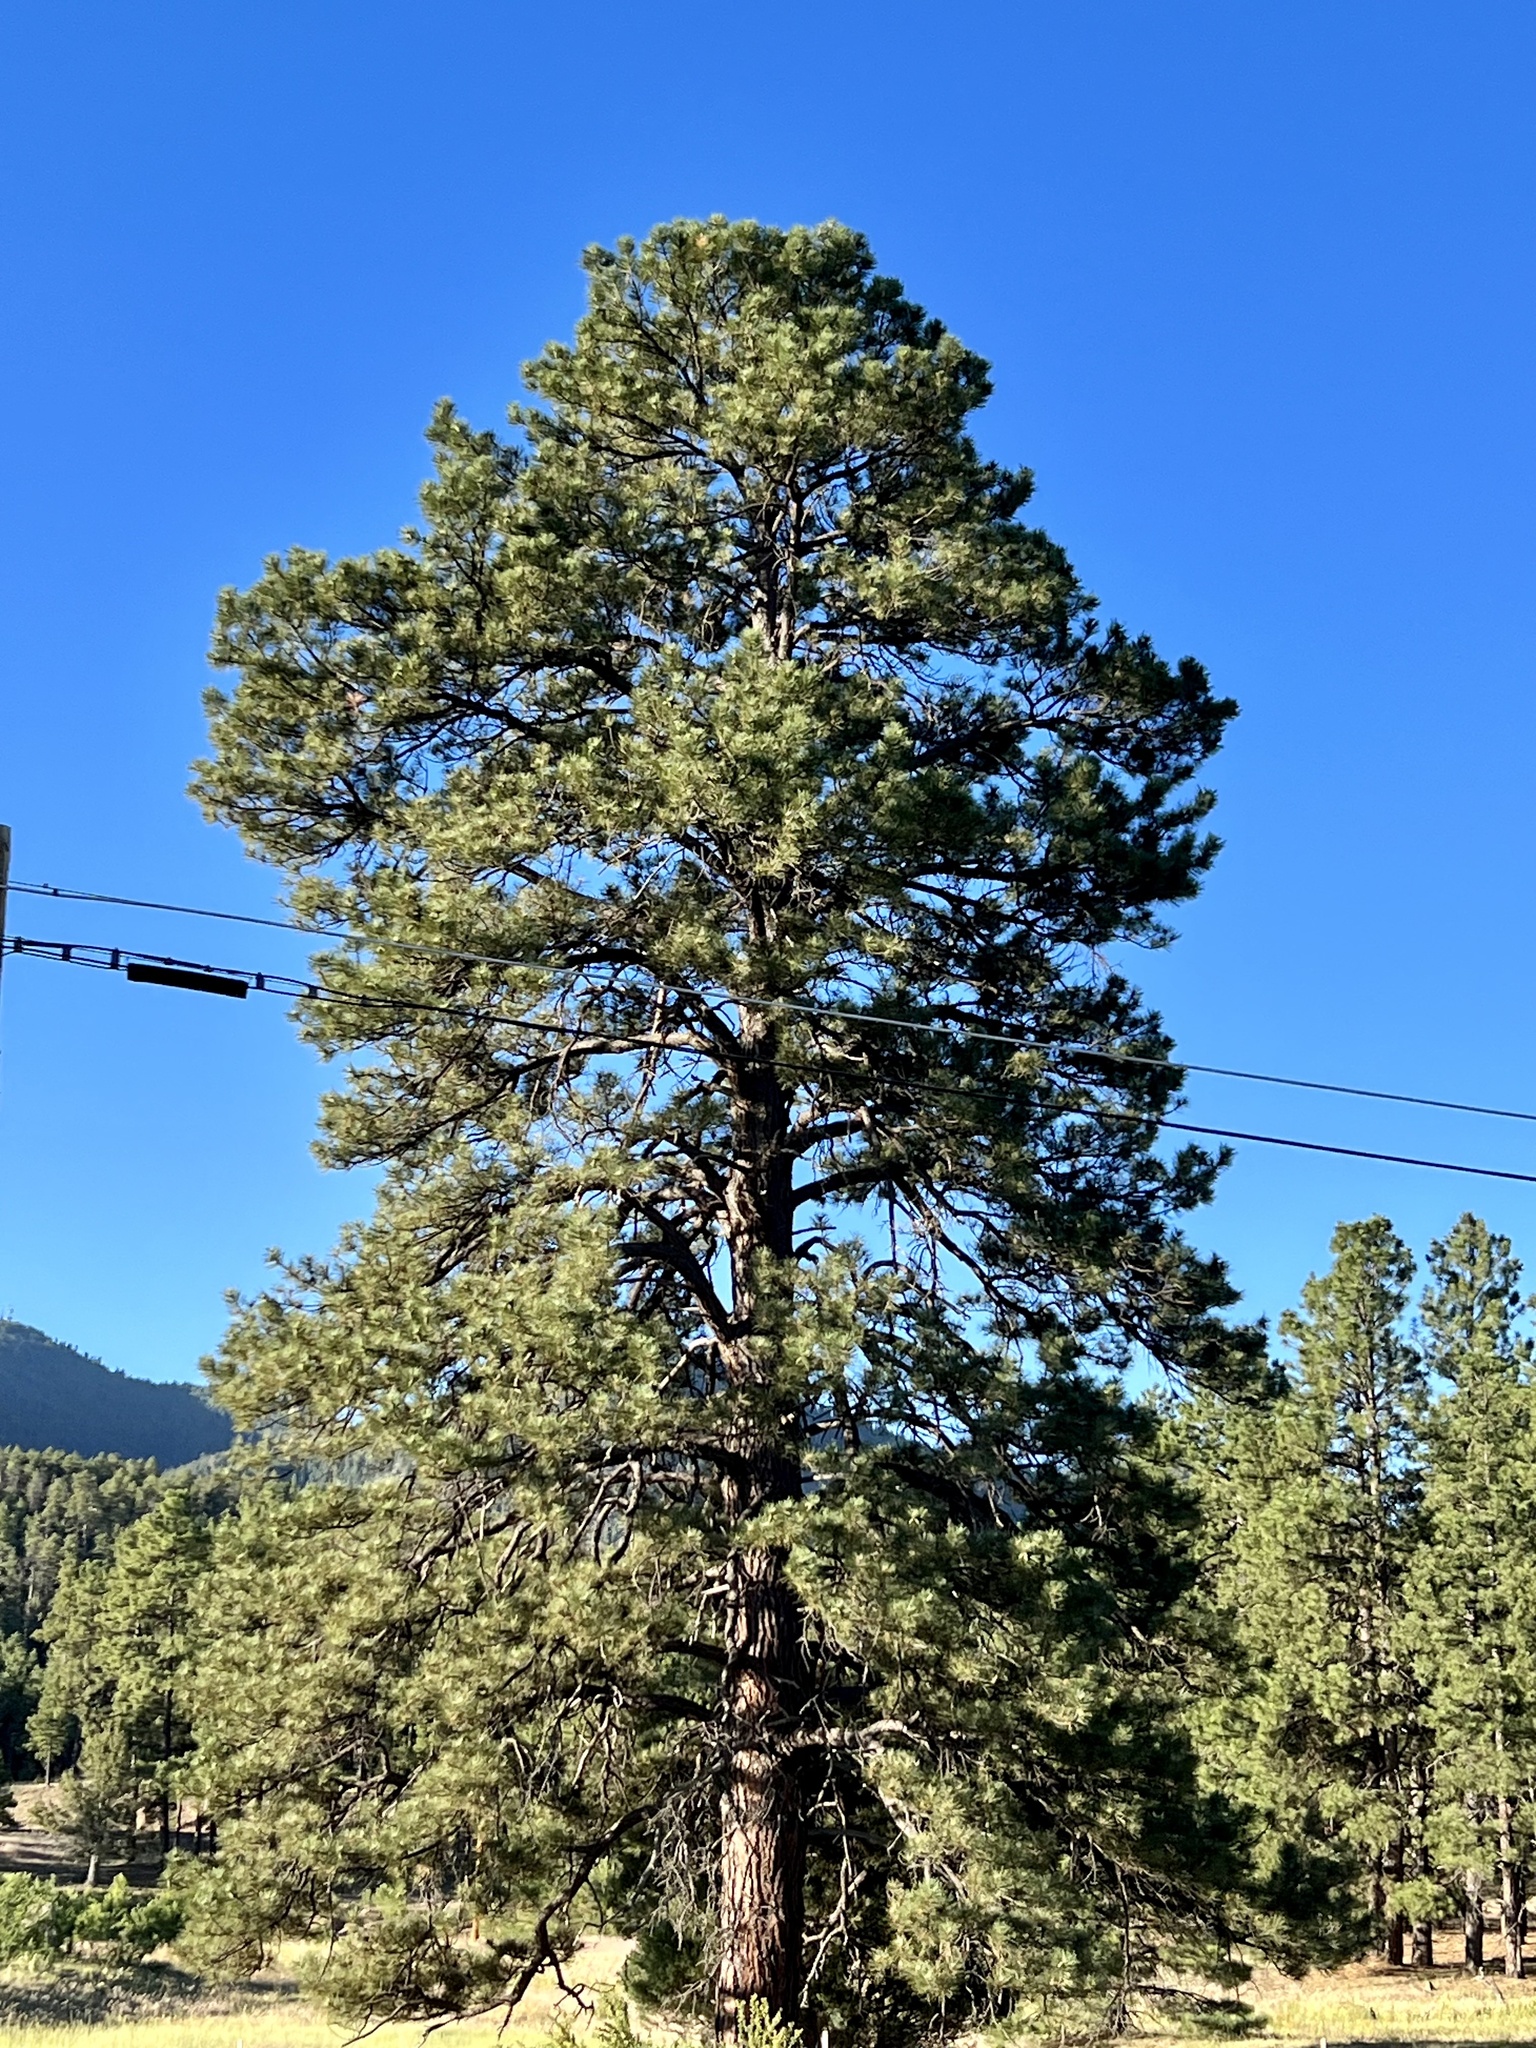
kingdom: Plantae
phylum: Tracheophyta
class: Pinopsida
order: Pinales
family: Pinaceae
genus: Pinus
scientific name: Pinus ponderosa
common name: Western yellow-pine
